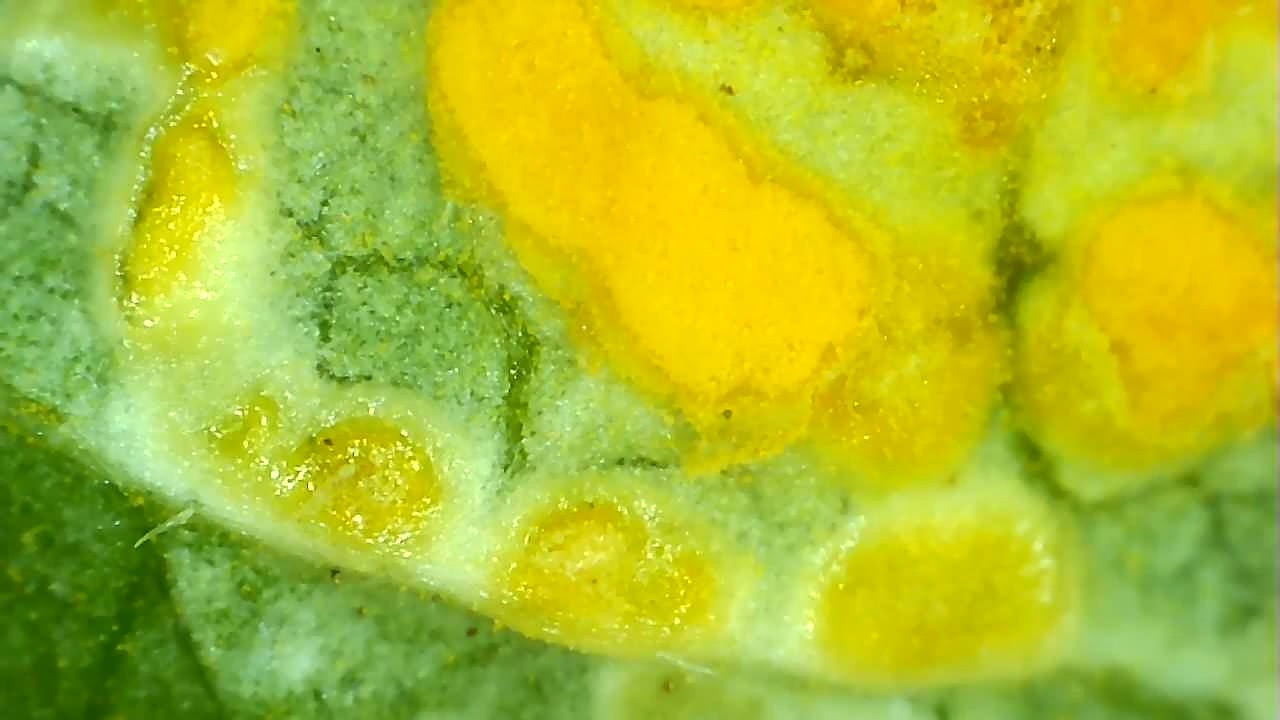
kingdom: Fungi
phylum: Basidiomycota
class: Pucciniomycetes
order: Pucciniales
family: Melampsoraceae
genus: Melampsora
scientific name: Melampsora rostrupii
